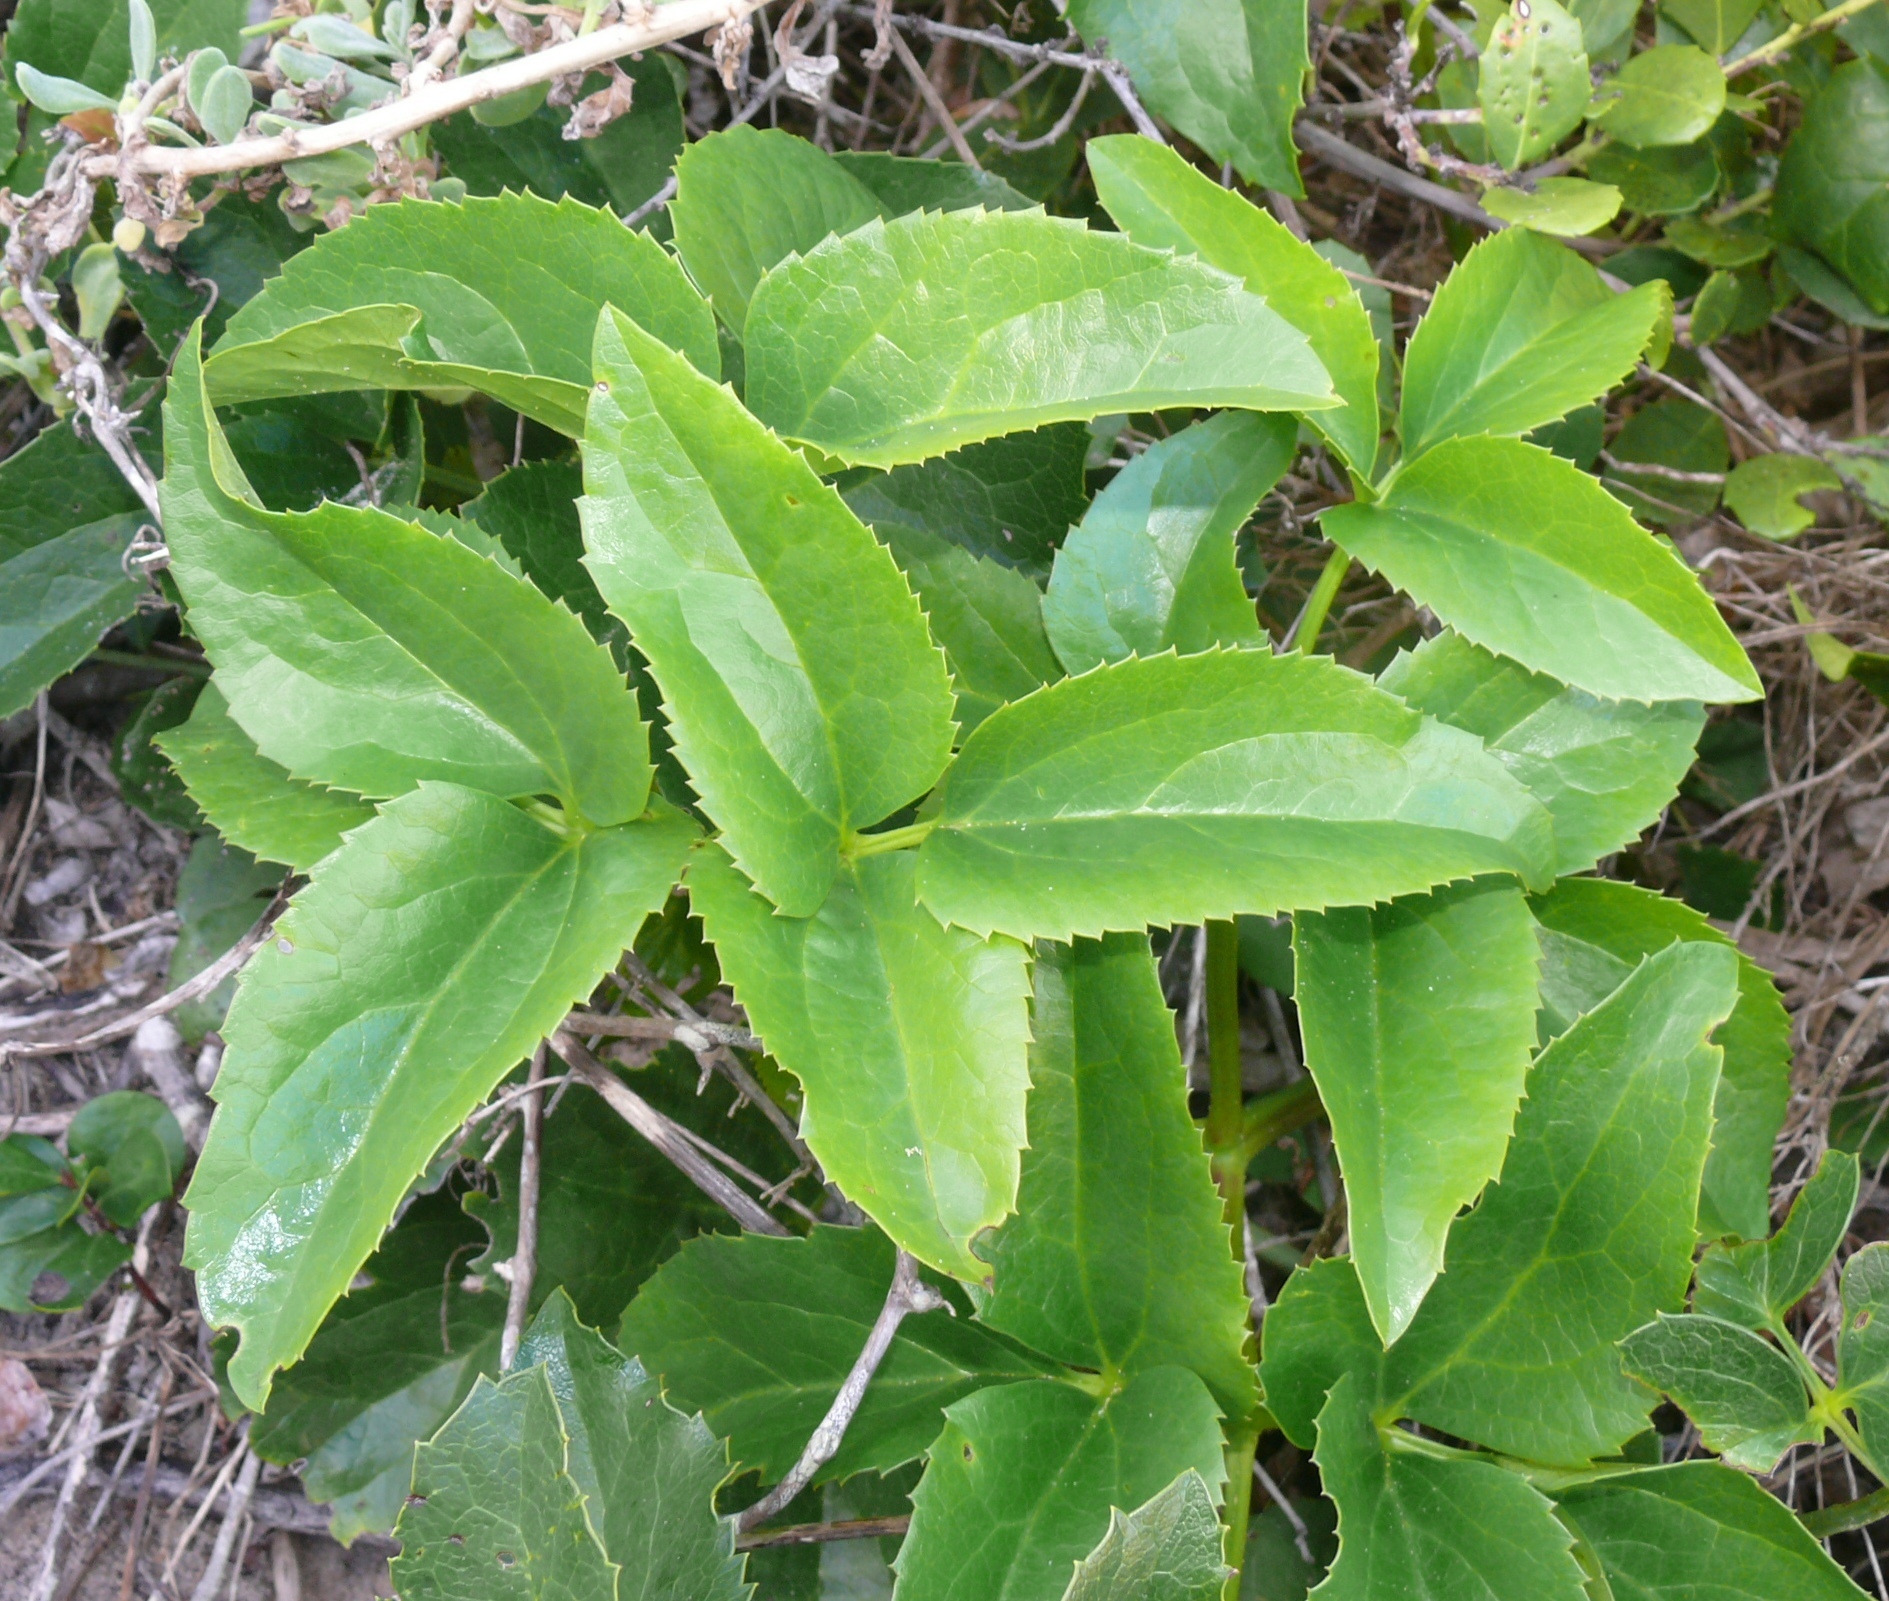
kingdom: Plantae
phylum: Tracheophyta
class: Magnoliopsida
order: Ranunculales
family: Ranunculaceae
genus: Knowltonia
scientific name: Knowltonia vesicatoria
